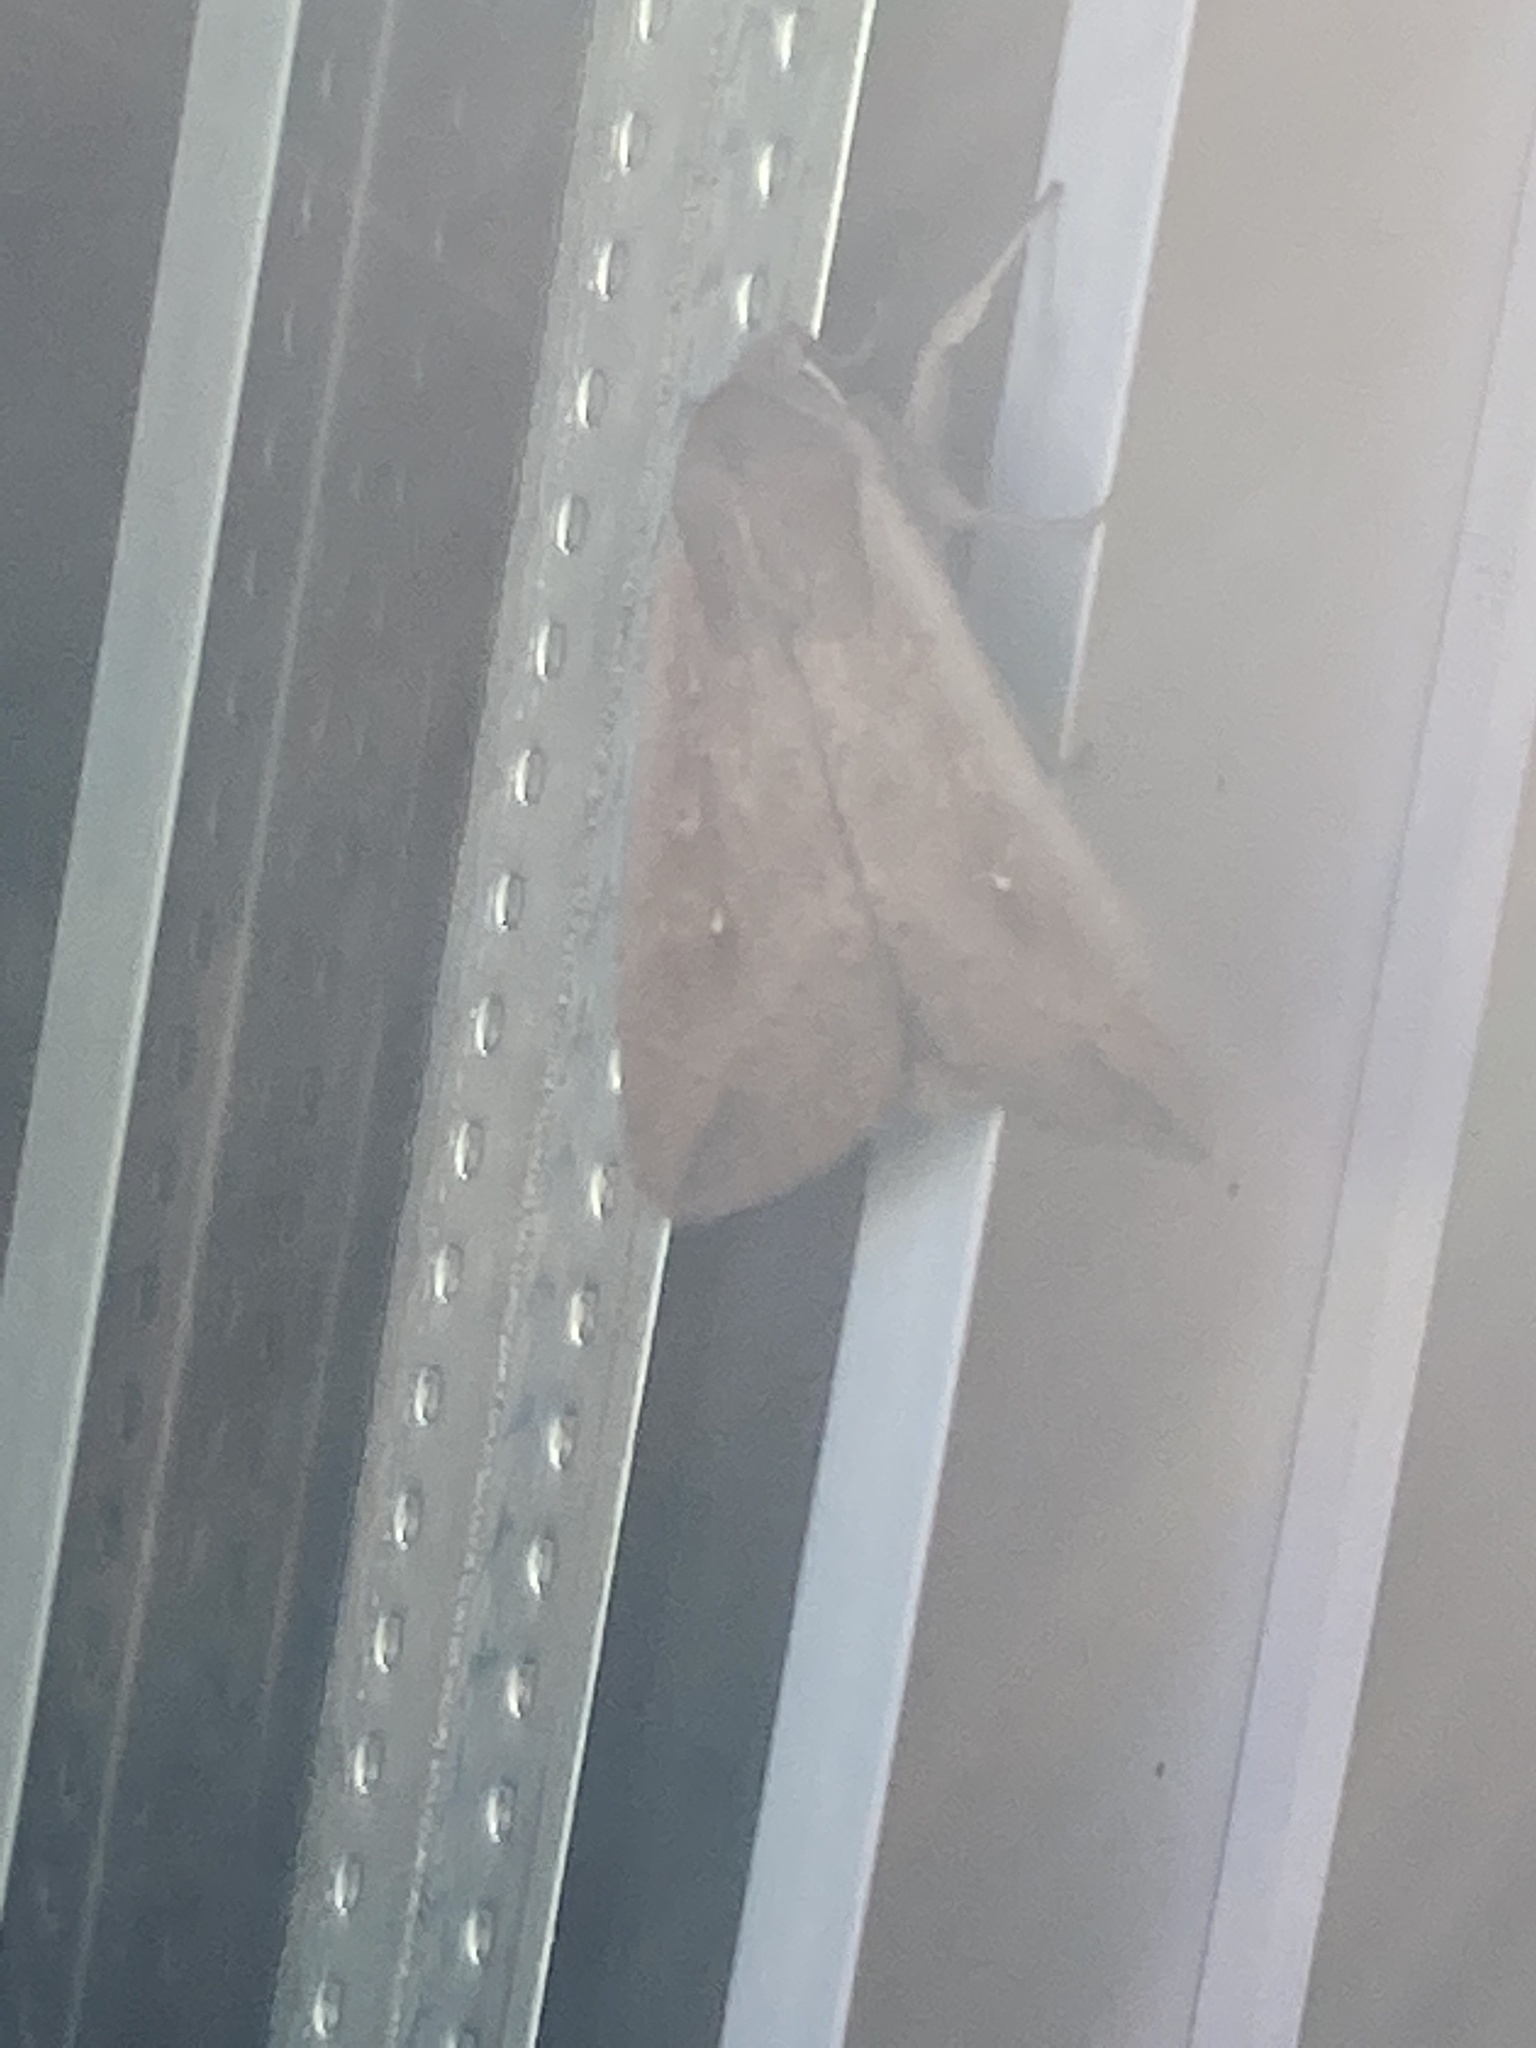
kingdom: Animalia
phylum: Arthropoda
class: Insecta
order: Lepidoptera
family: Noctuidae
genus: Mythimna
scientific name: Mythimna unipuncta
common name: White-speck
